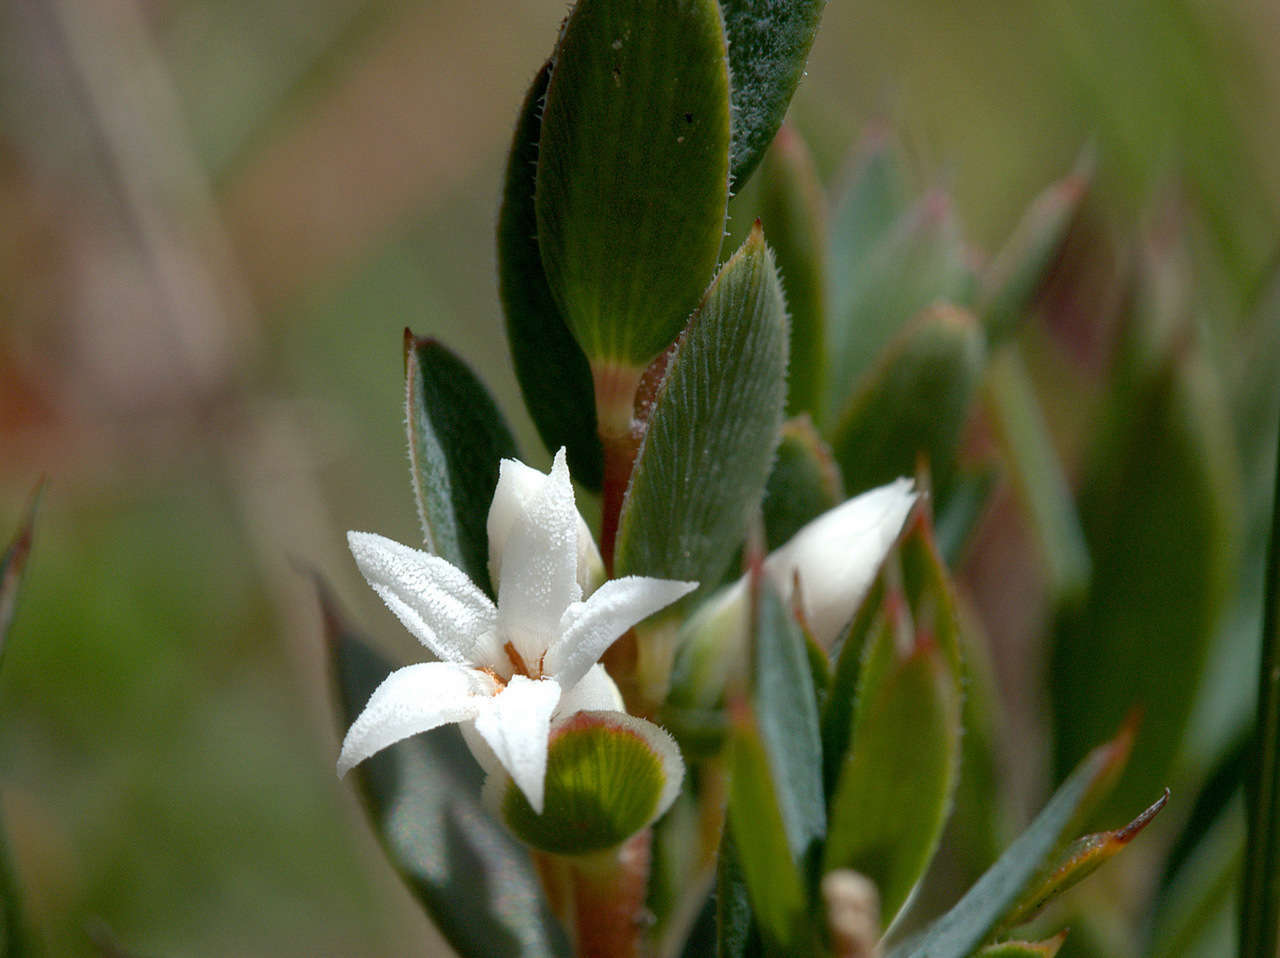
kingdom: Plantae
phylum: Tracheophyta
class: Magnoliopsida
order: Ericales
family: Ericaceae
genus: Brachyloma
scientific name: Brachyloma ciliatum
